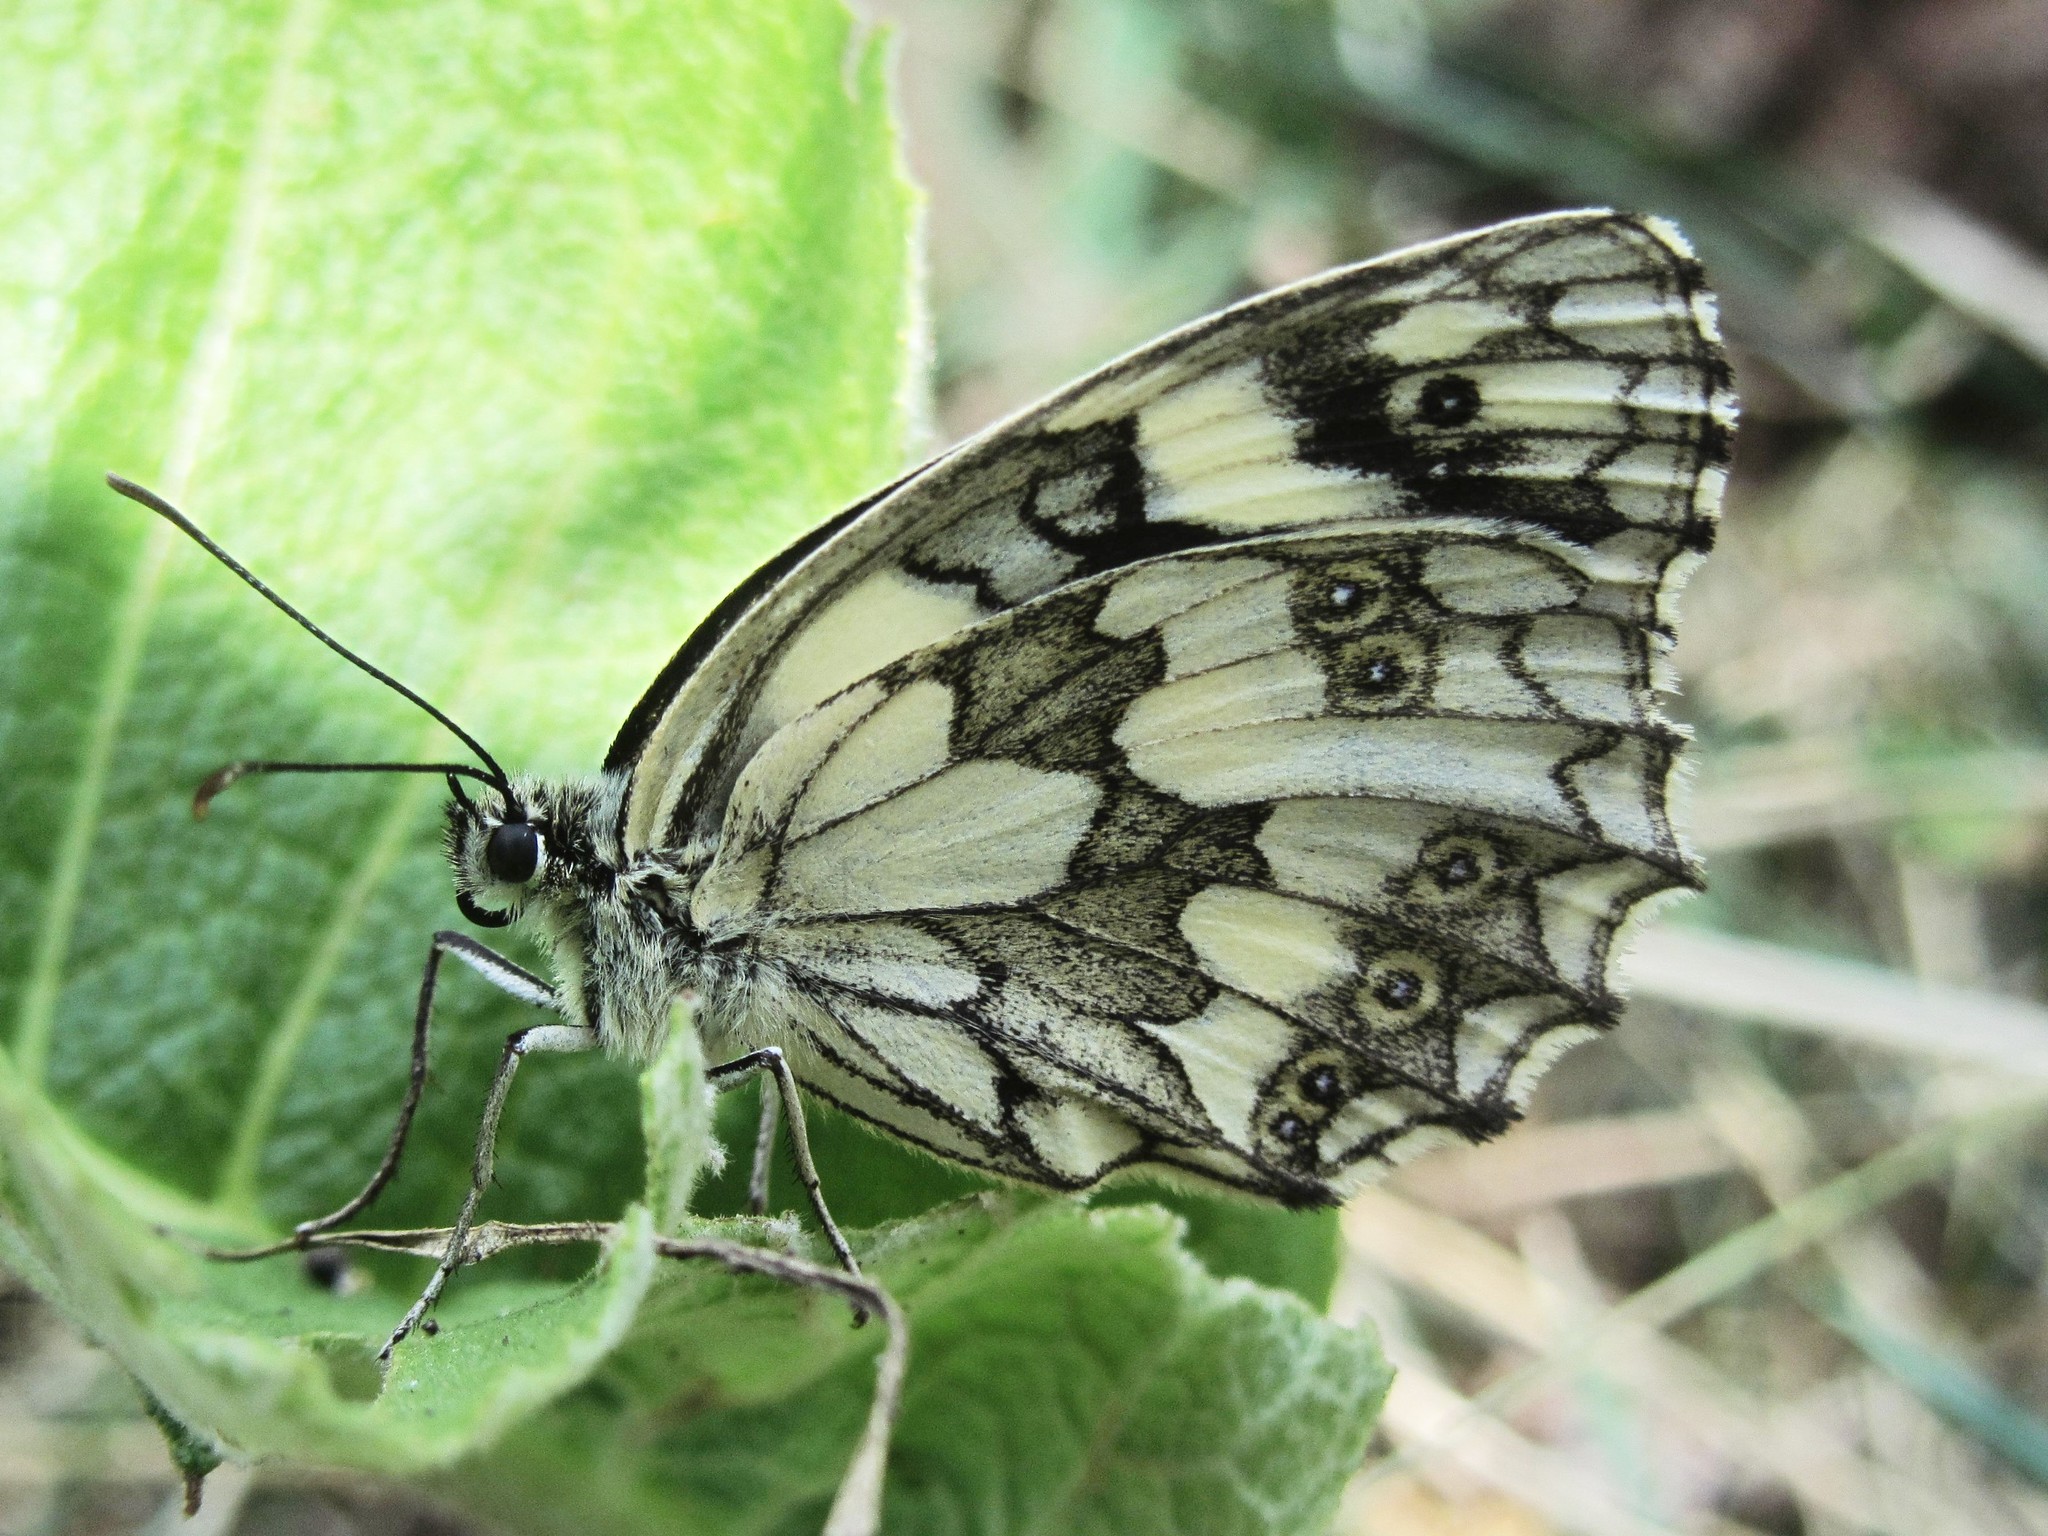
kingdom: Animalia
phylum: Arthropoda
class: Insecta
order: Lepidoptera
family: Nymphalidae
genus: Melanargia
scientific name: Melanargia galathea
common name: Marbled white
